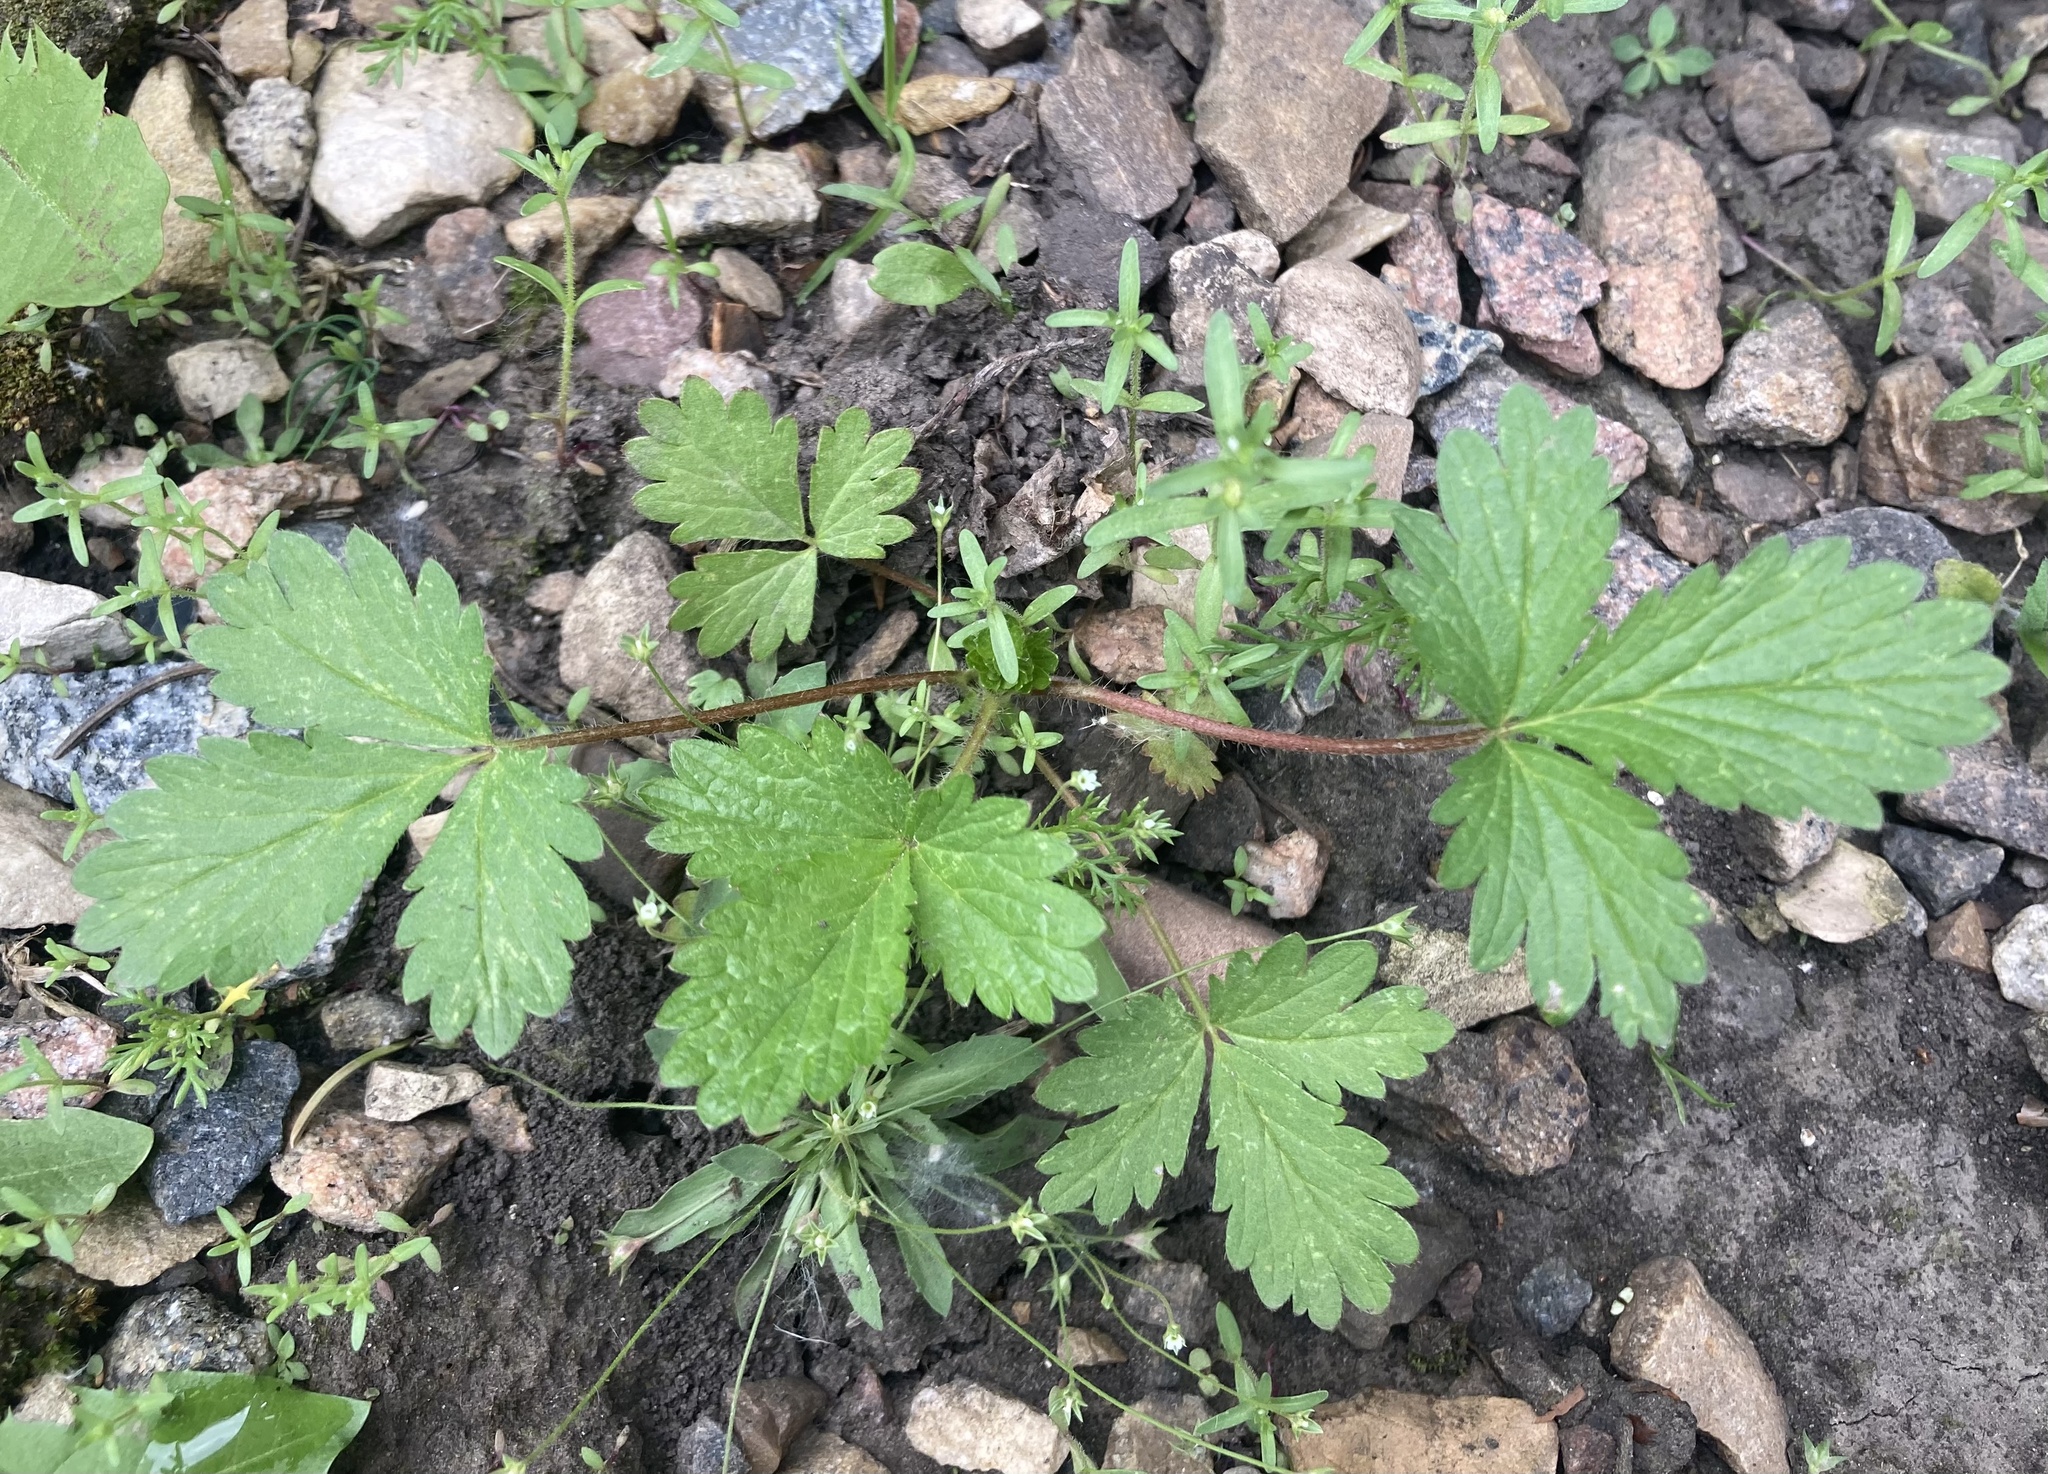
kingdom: Plantae
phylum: Tracheophyta
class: Magnoliopsida
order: Rosales
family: Rosaceae
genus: Potentilla
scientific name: Potentilla norvegica
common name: Ternate-leaved cinquefoil
